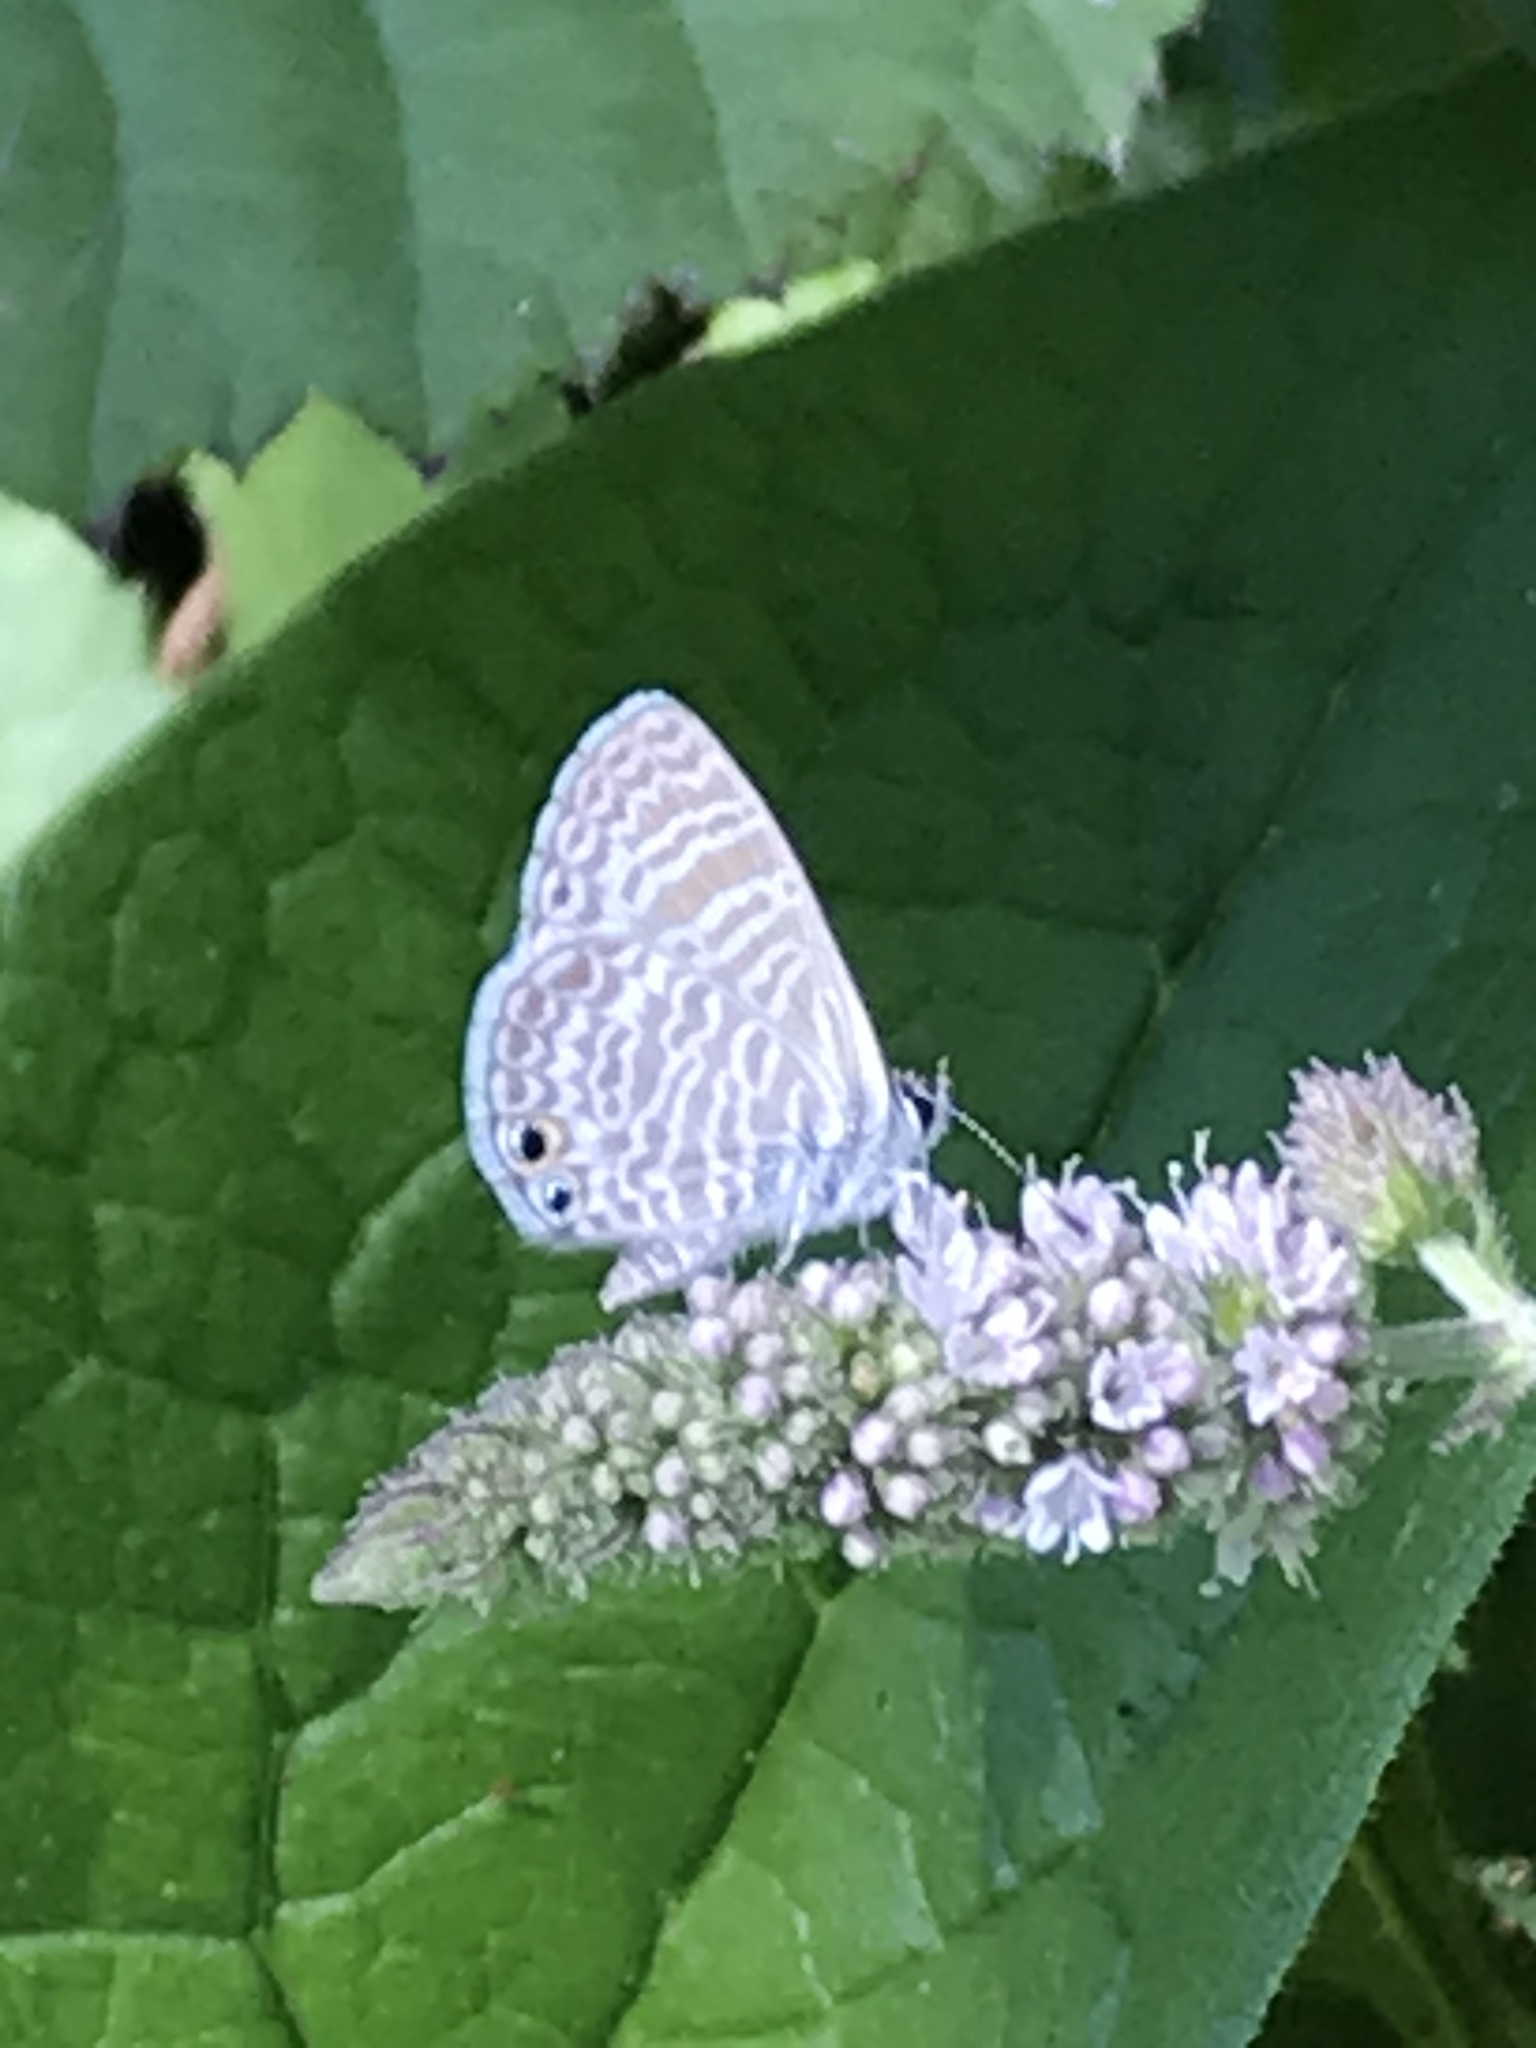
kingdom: Animalia
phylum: Arthropoda
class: Insecta
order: Lepidoptera
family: Lycaenidae
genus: Leptotes
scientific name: Leptotes marina
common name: Marine blue
